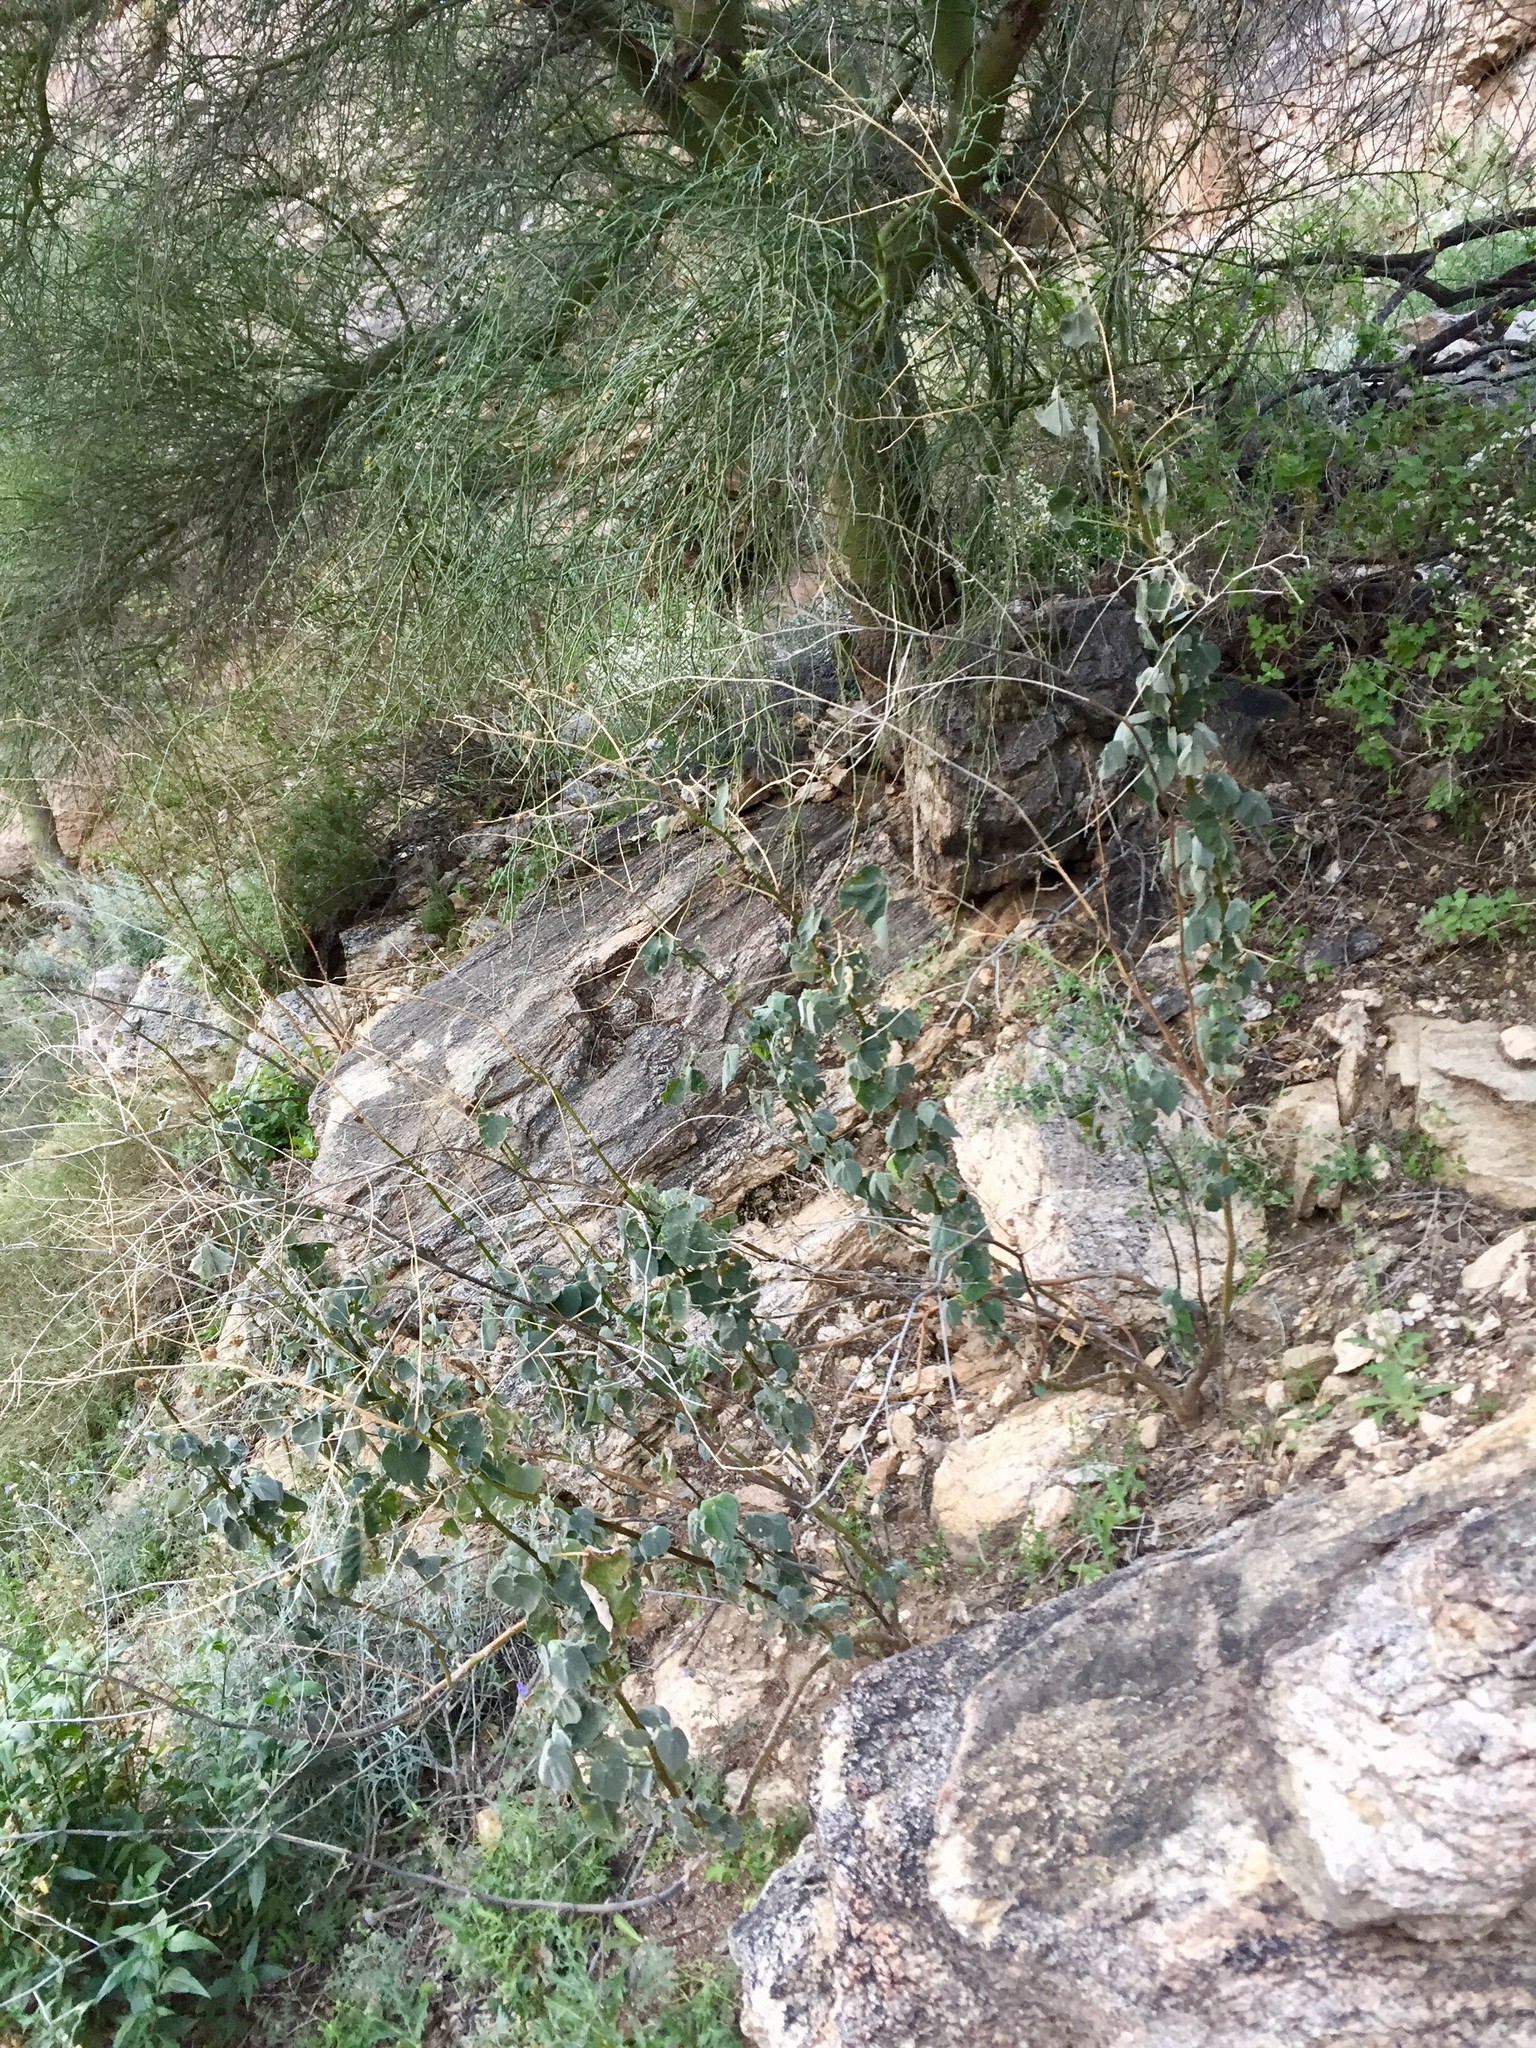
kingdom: Plantae
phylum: Tracheophyta
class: Magnoliopsida
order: Malvales
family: Malvaceae
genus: Abutilon
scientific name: Abutilon reventum
